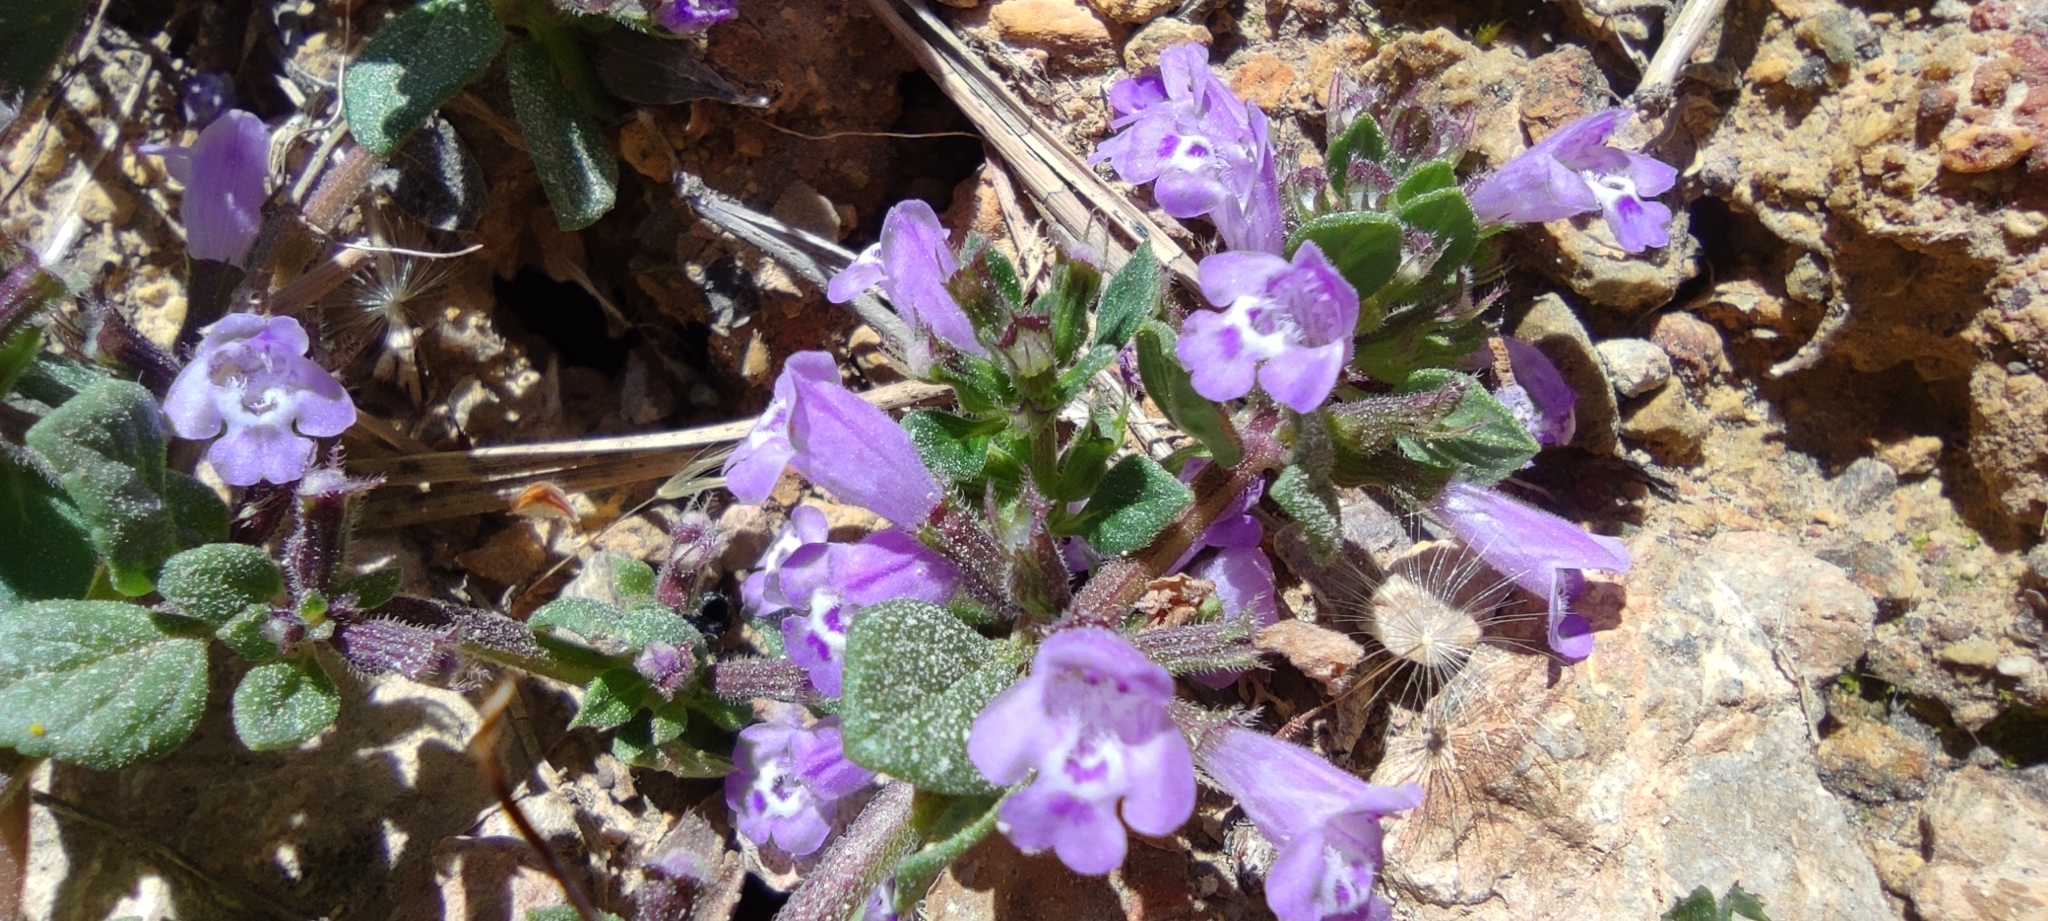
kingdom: Plantae
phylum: Tracheophyta
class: Magnoliopsida
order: Lamiales
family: Lamiaceae
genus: Clinopodium
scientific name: Clinopodium alpinum
